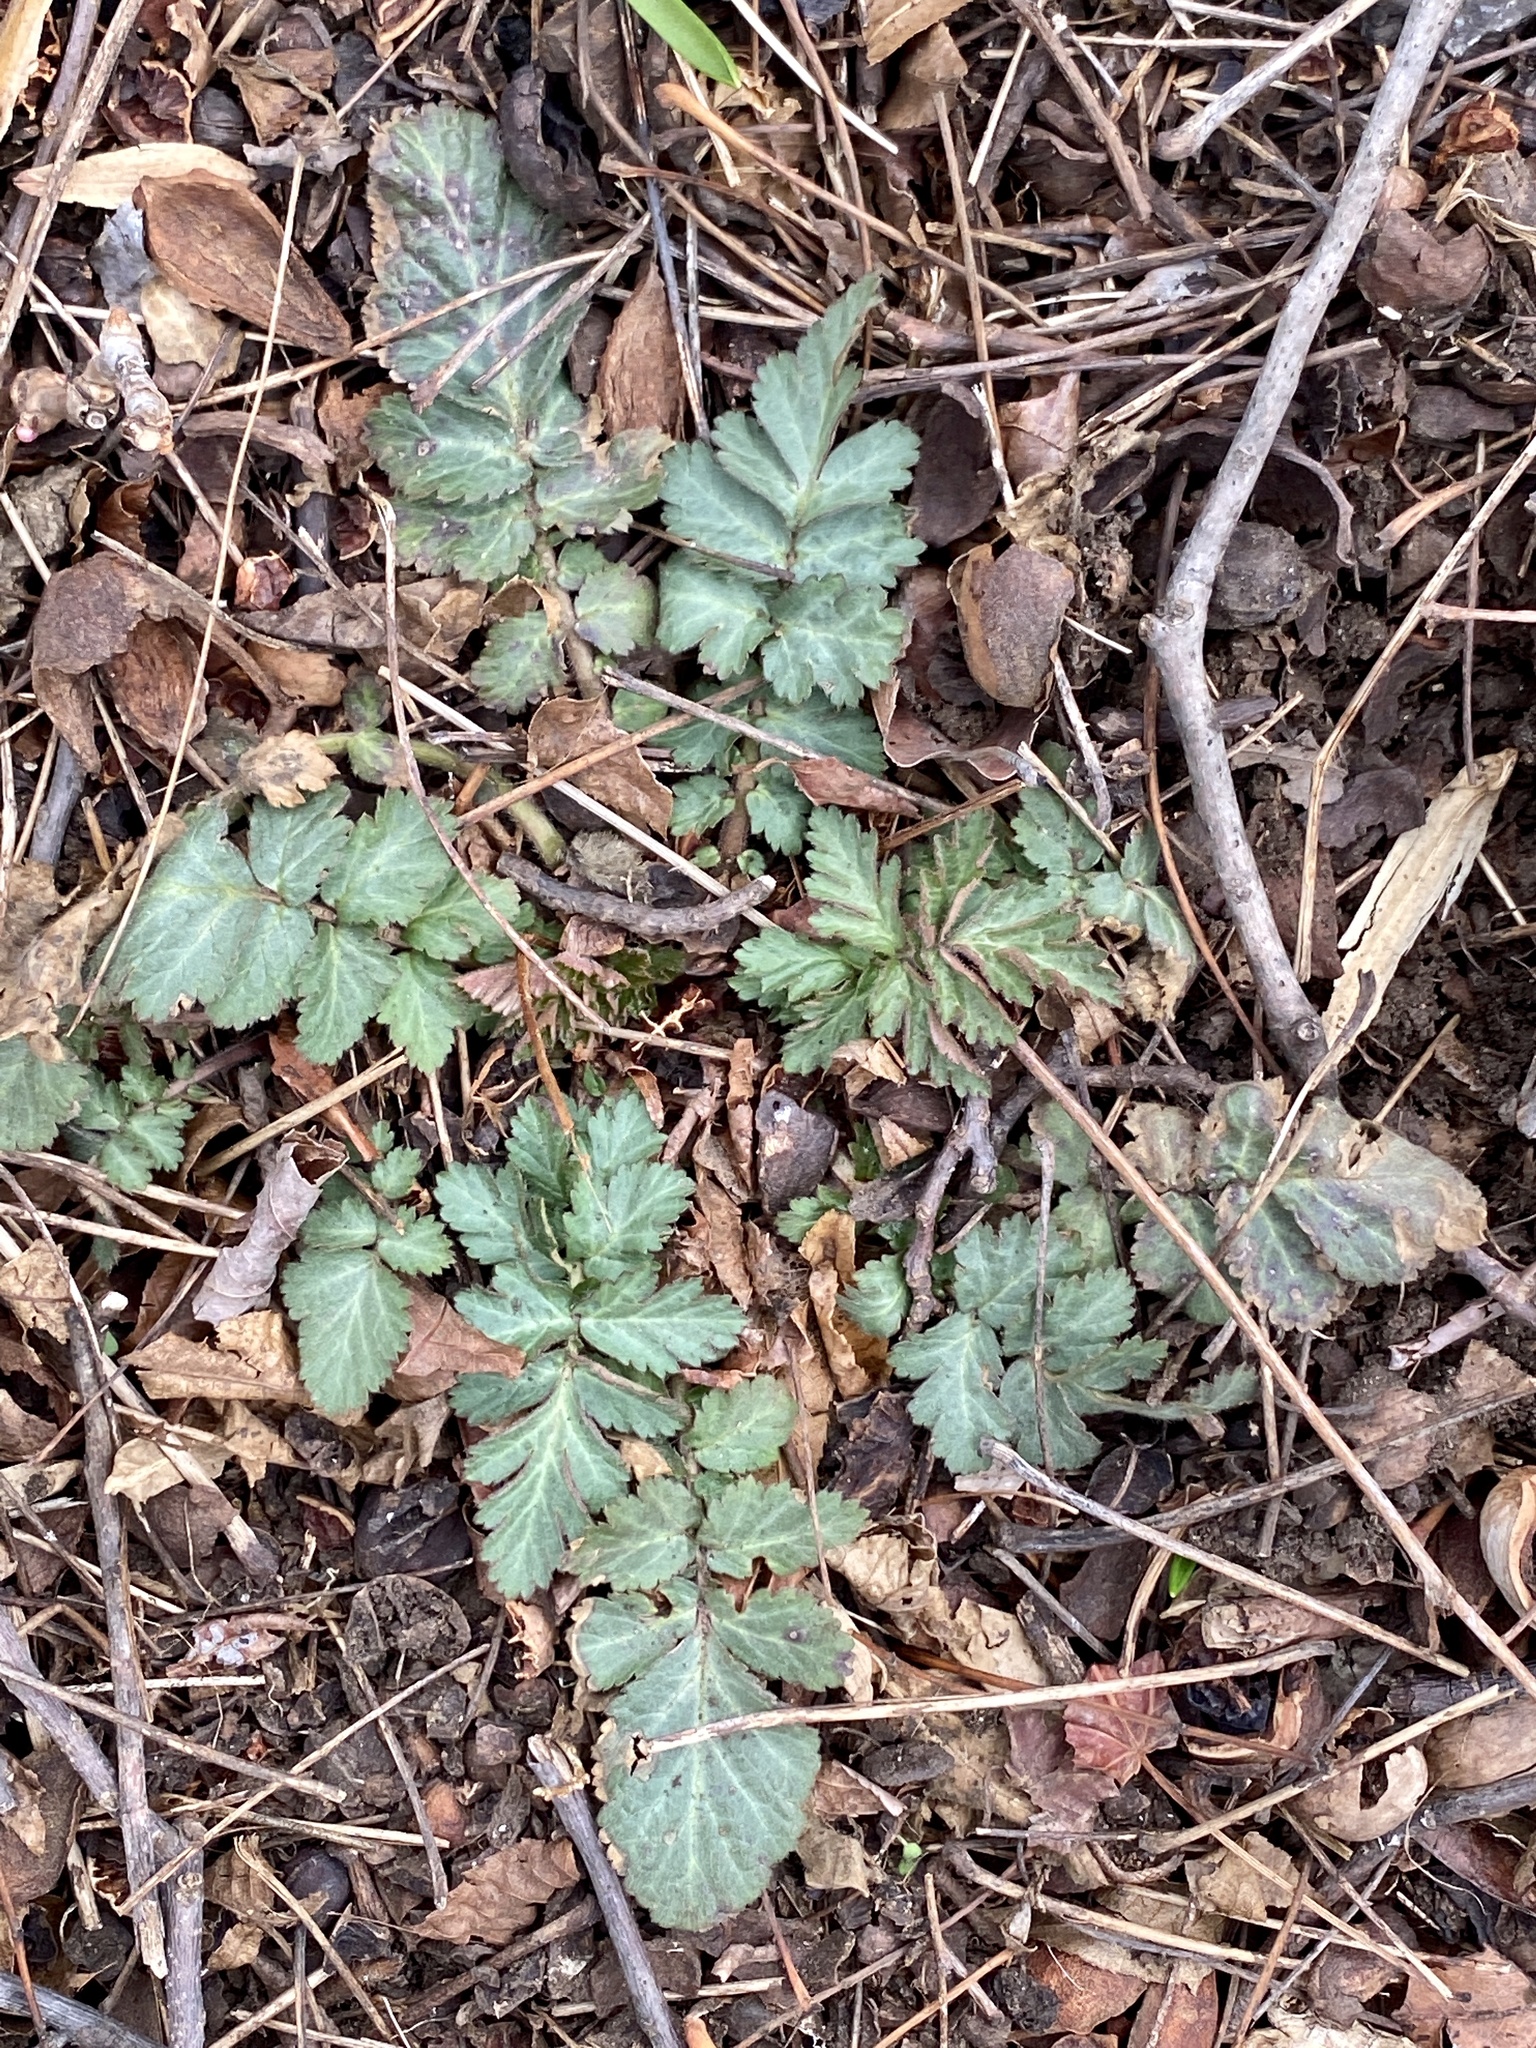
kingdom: Plantae
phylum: Tracheophyta
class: Magnoliopsida
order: Rosales
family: Rosaceae
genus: Geum
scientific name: Geum canadense
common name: White avens
